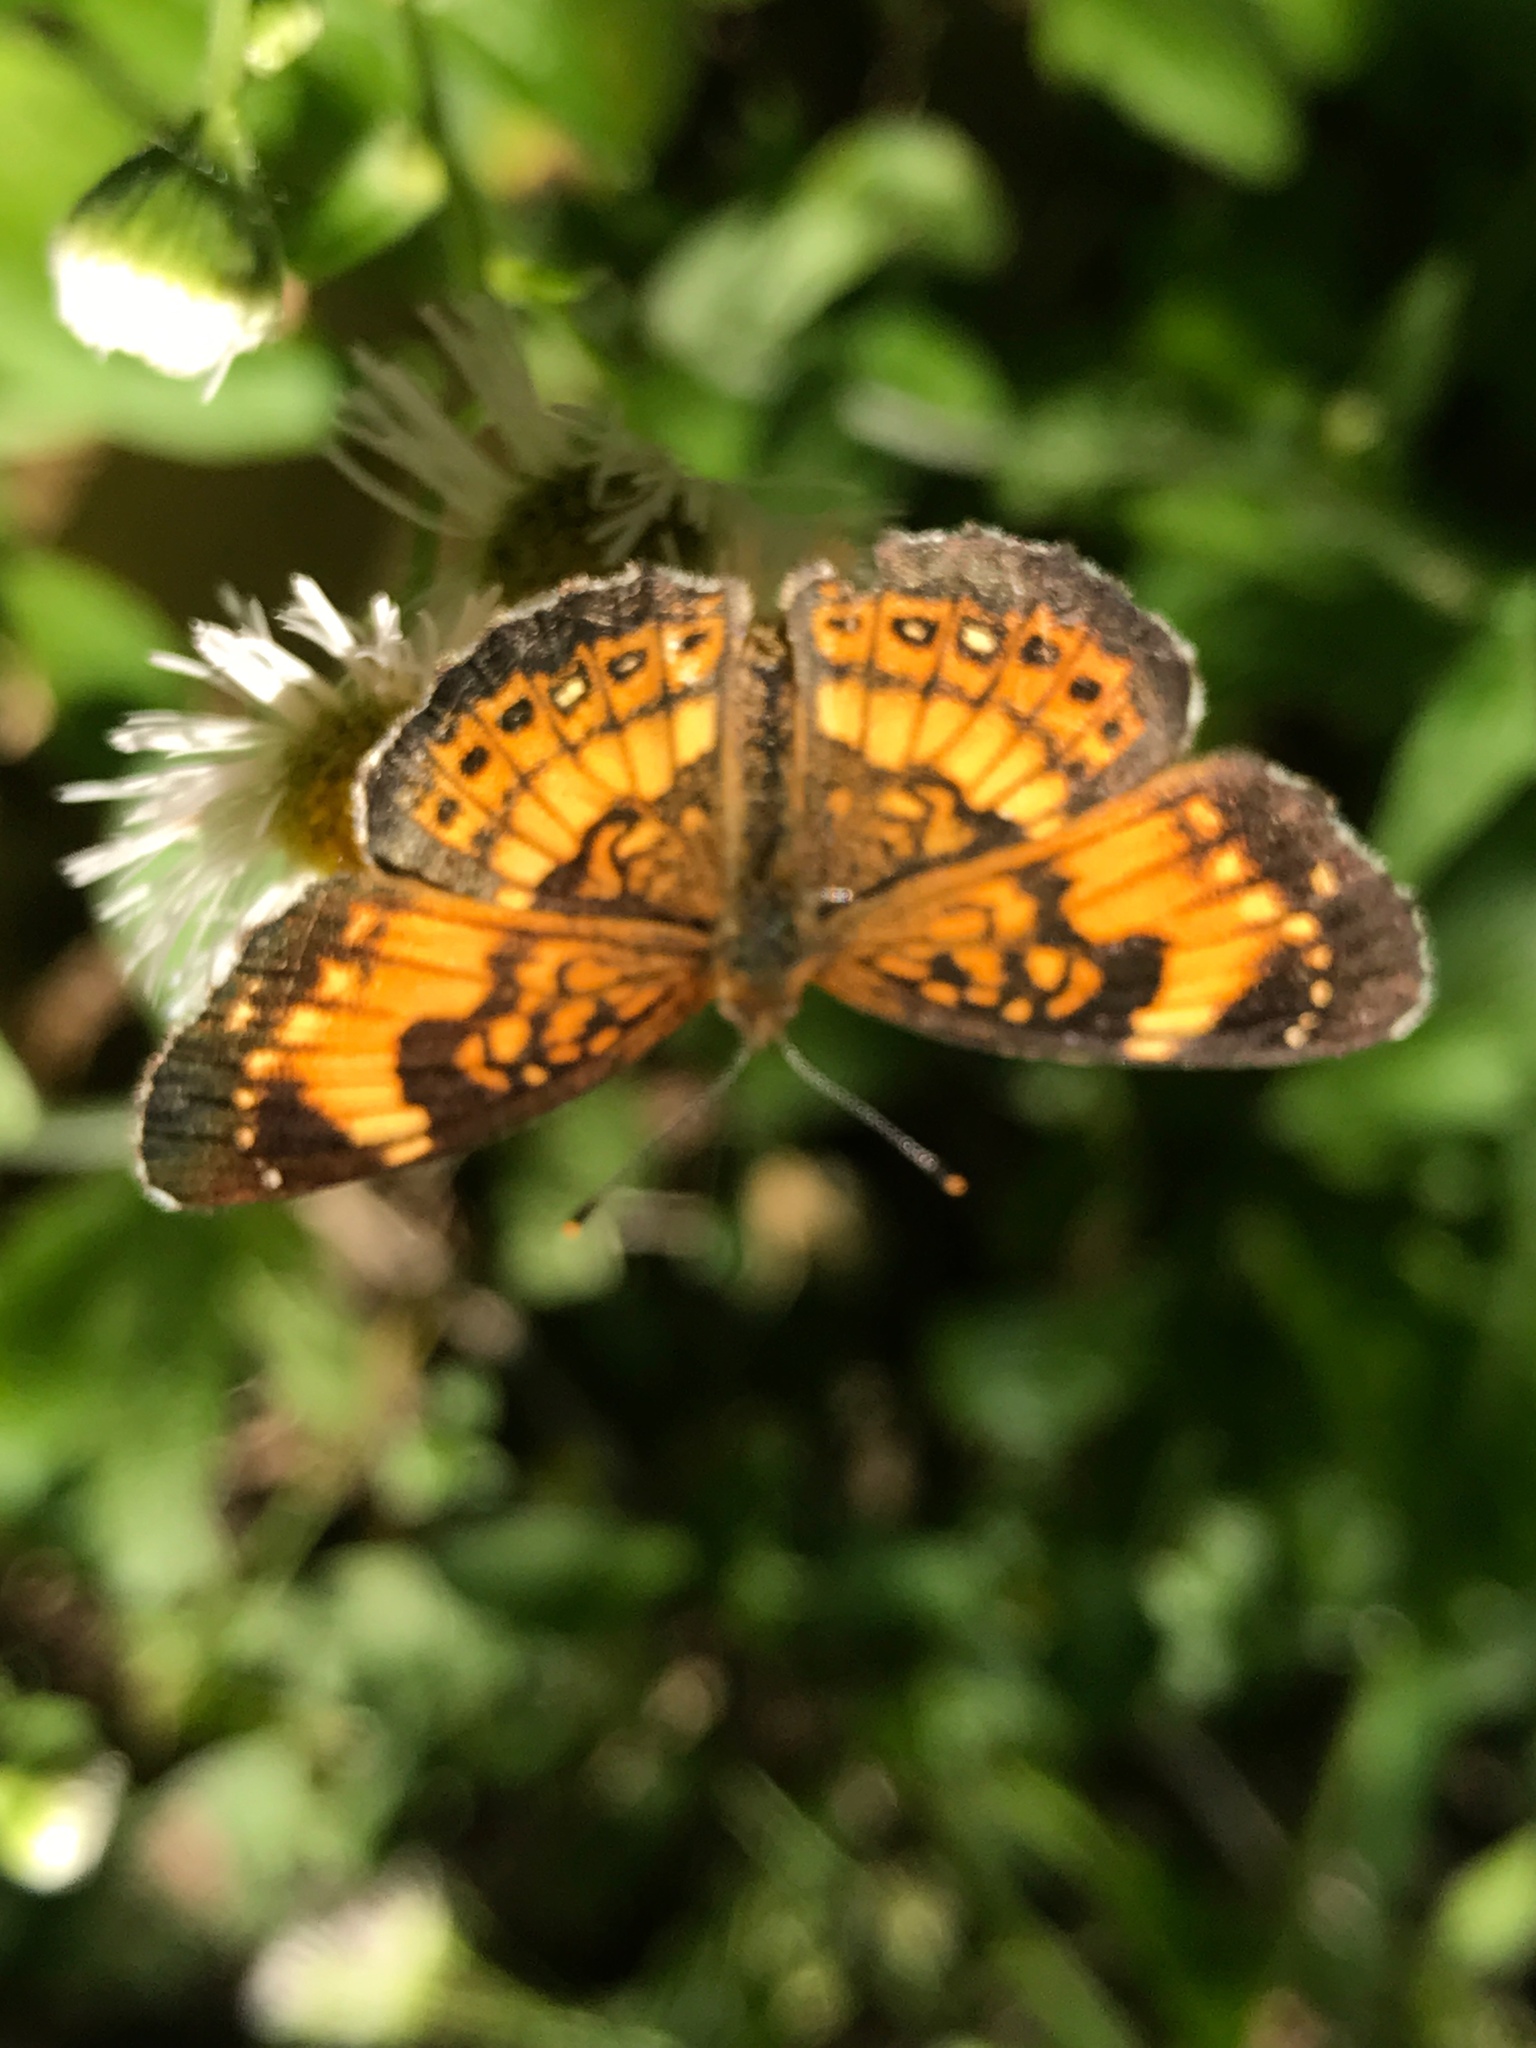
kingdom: Animalia
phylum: Arthropoda
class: Insecta
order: Lepidoptera
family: Nymphalidae
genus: Chlosyne
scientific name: Chlosyne nycteis
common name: Silvery checkerspot
